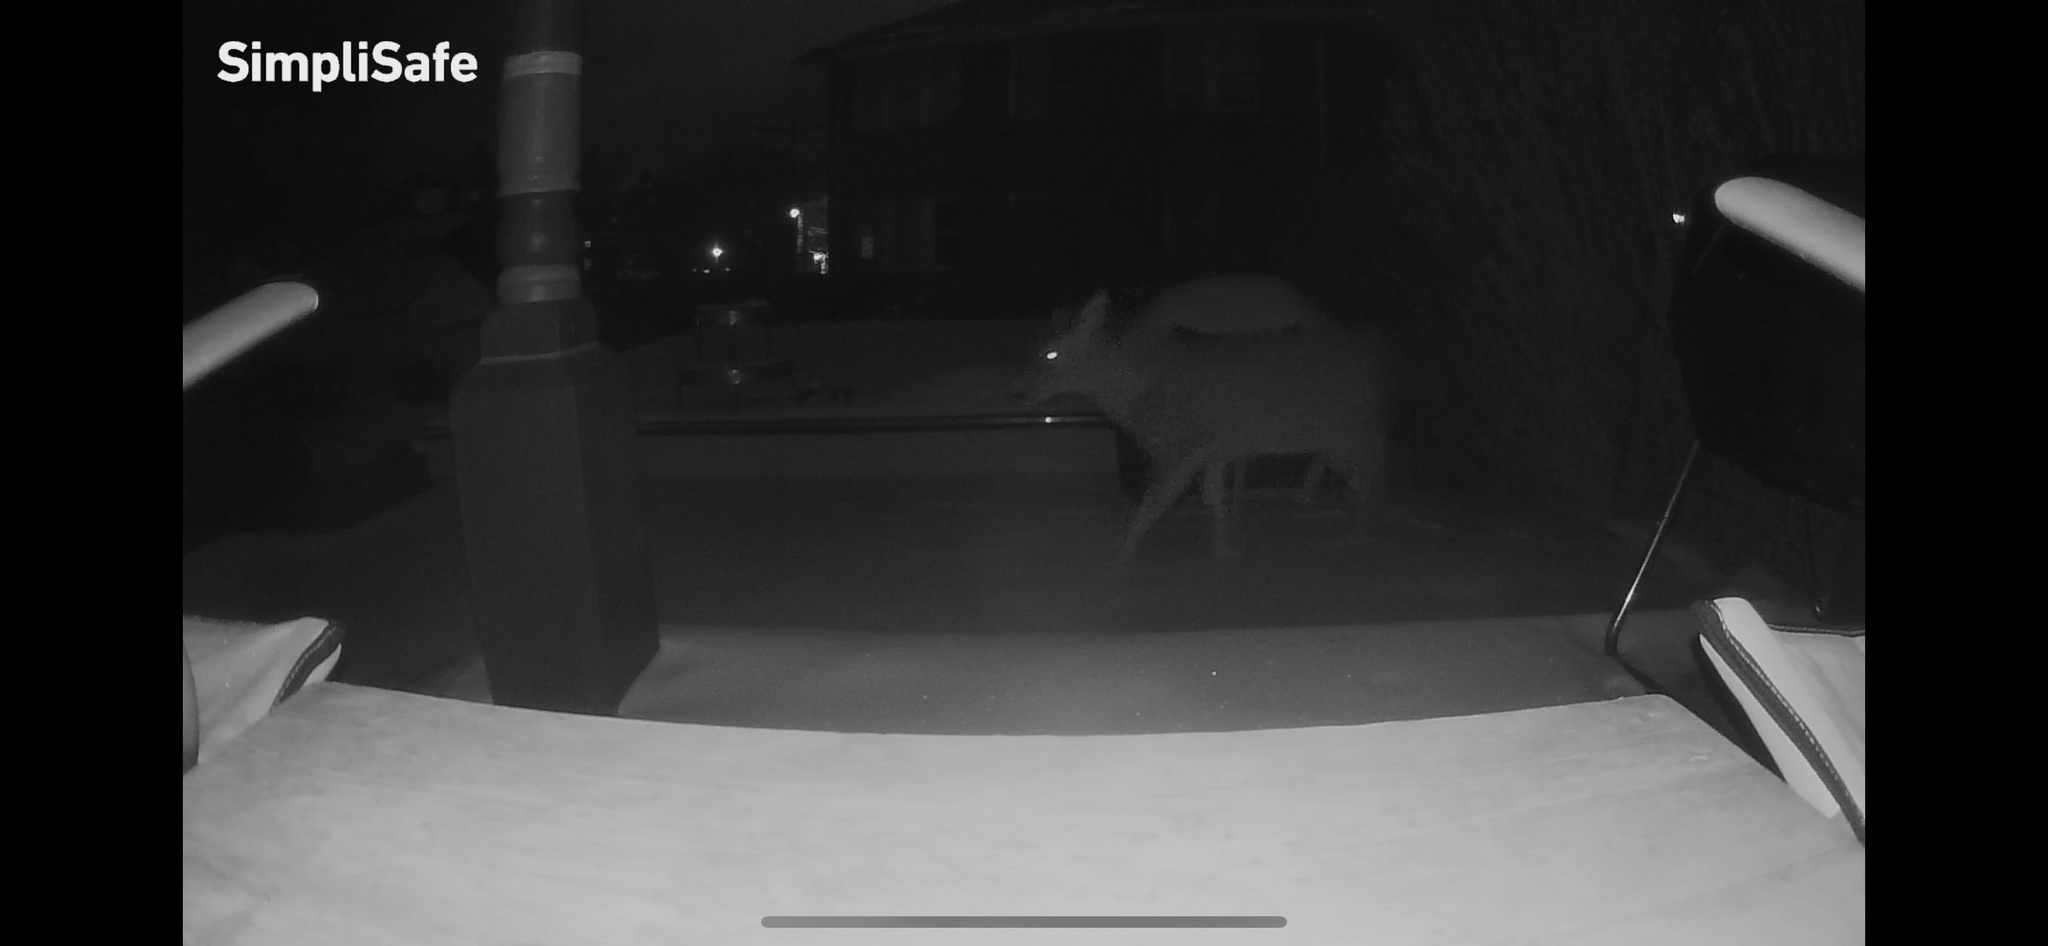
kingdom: Animalia
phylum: Chordata
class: Mammalia
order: Artiodactyla
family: Cervidae
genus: Odocoileus
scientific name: Odocoileus virginianus
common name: White-tailed deer
